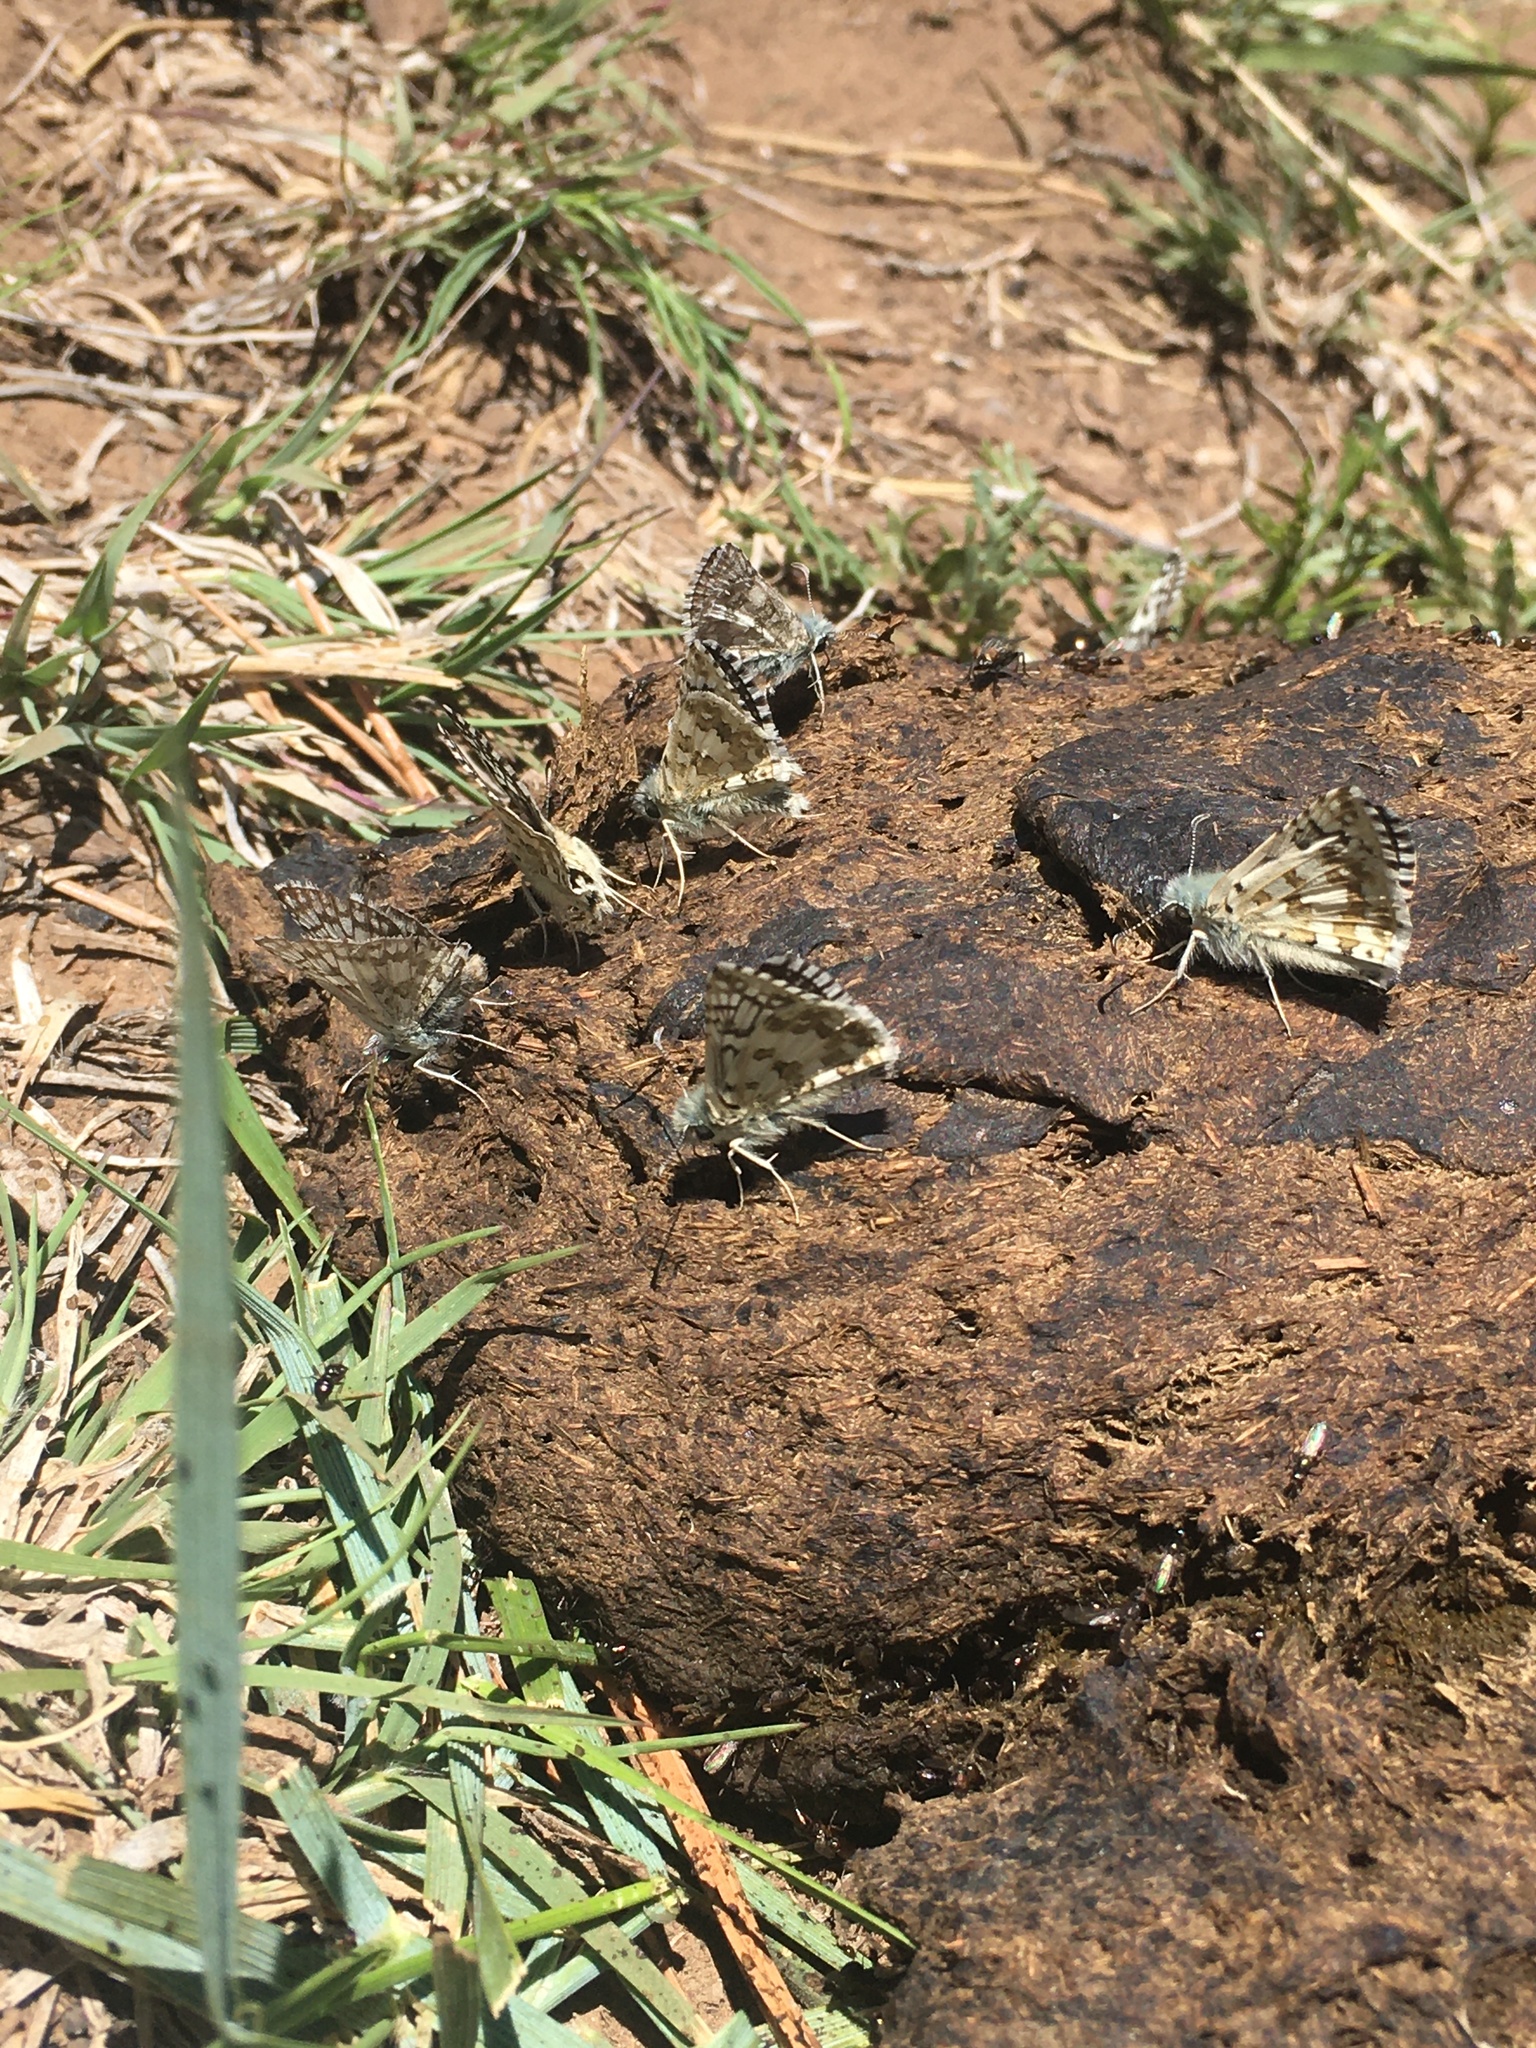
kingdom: Animalia
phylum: Arthropoda
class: Insecta
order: Lepidoptera
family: Hesperiidae
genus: Burnsius
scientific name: Burnsius
